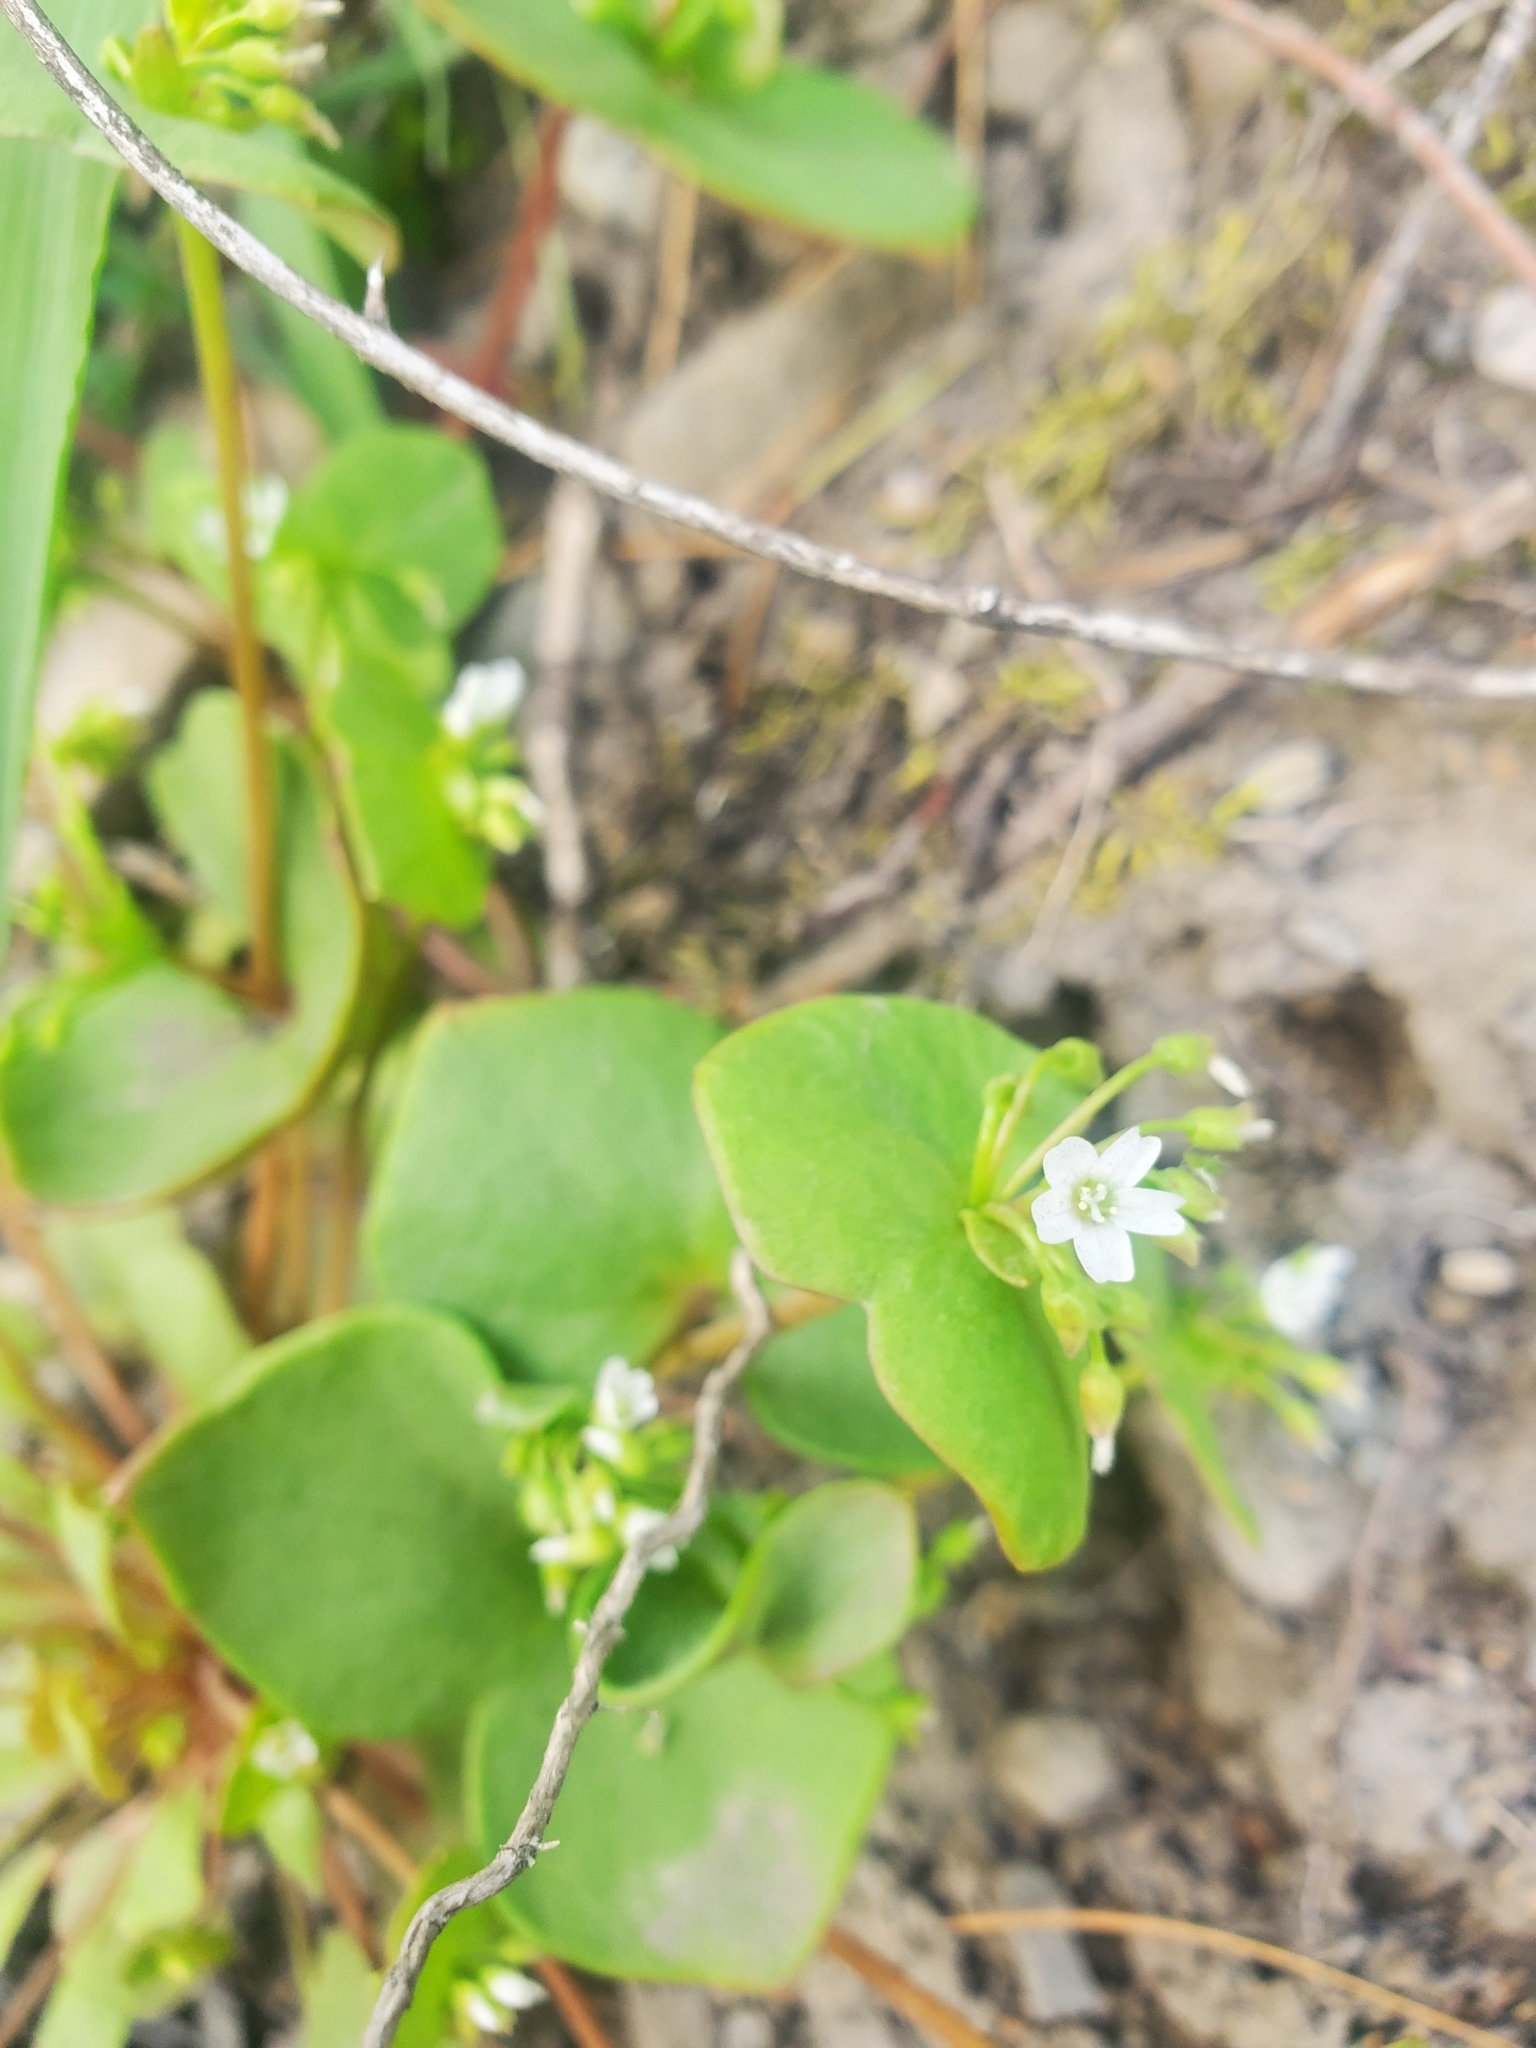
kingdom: Plantae
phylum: Tracheophyta
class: Magnoliopsida
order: Caryophyllales
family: Montiaceae
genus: Claytonia
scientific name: Claytonia rubra
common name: Erubescent miner's-lettuce
